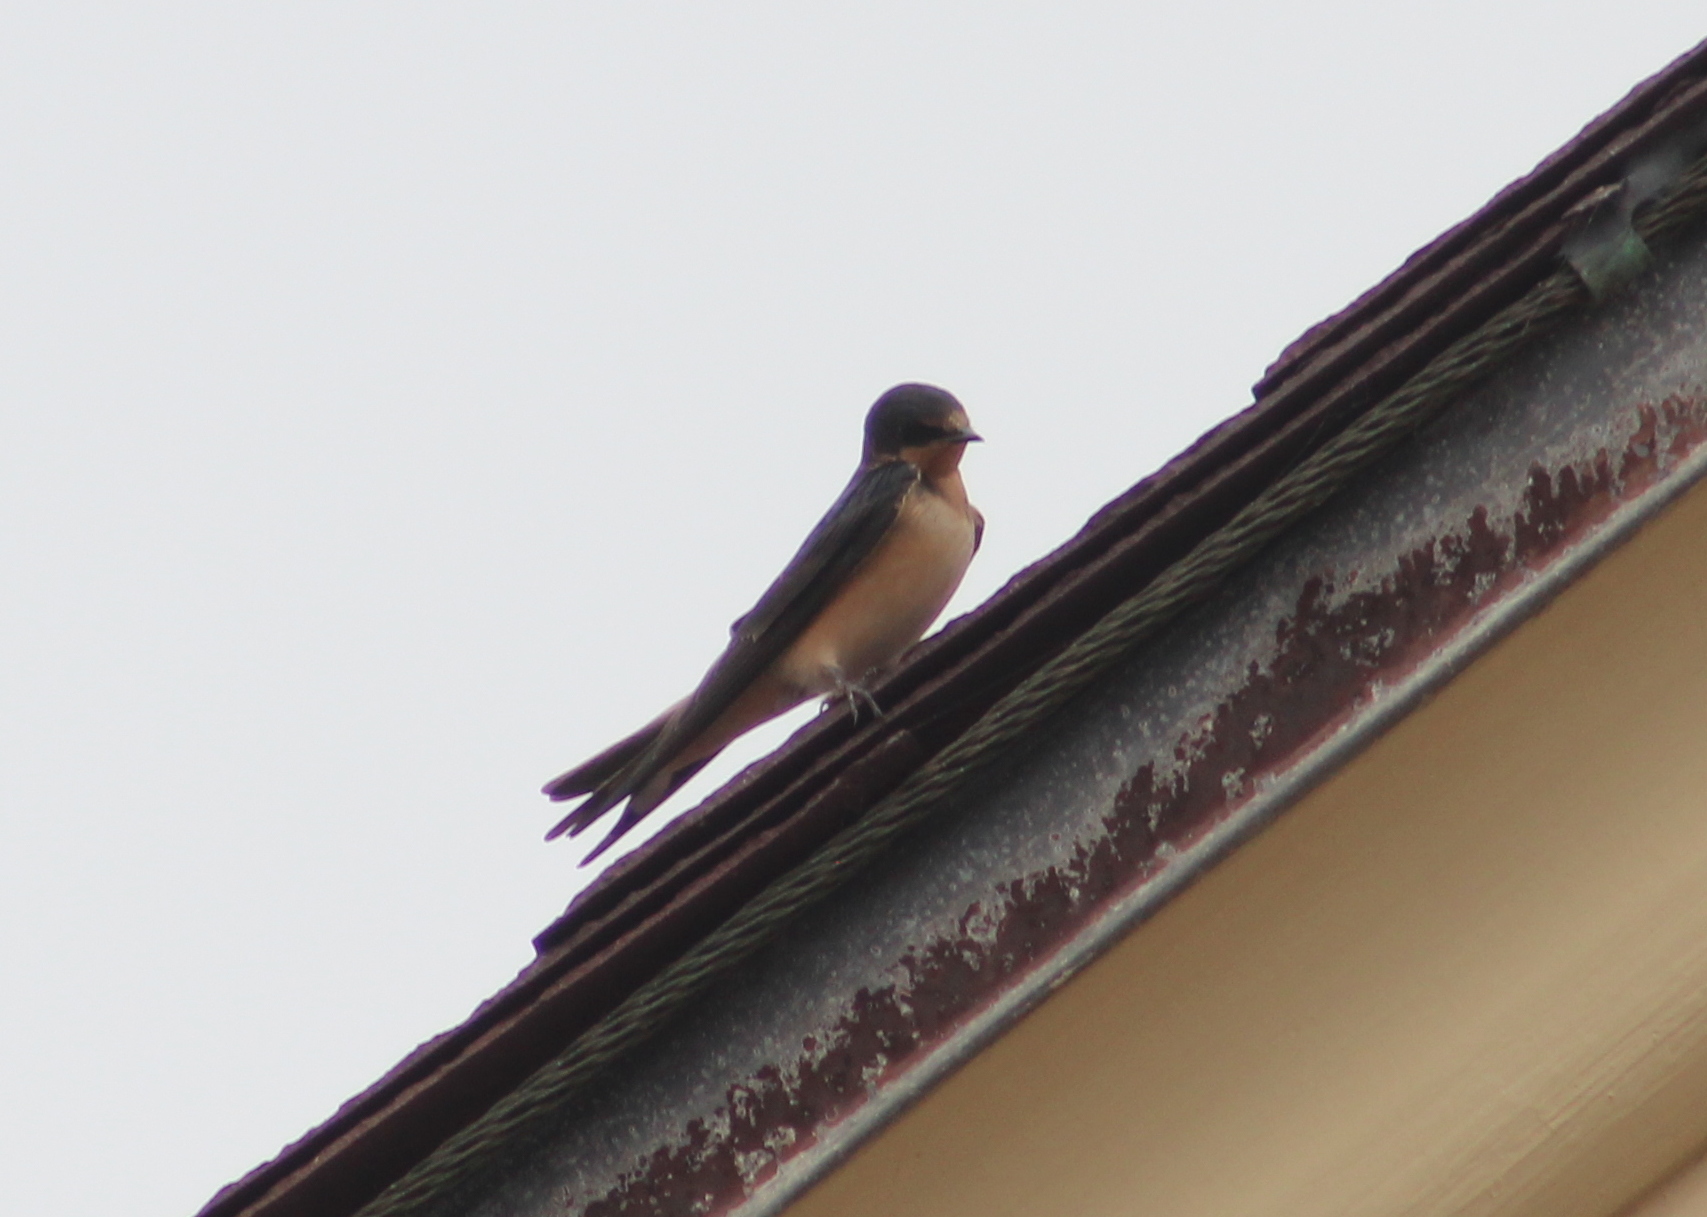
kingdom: Animalia
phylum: Chordata
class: Aves
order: Passeriformes
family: Hirundinidae
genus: Hirundo
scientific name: Hirundo rustica
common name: Barn swallow
